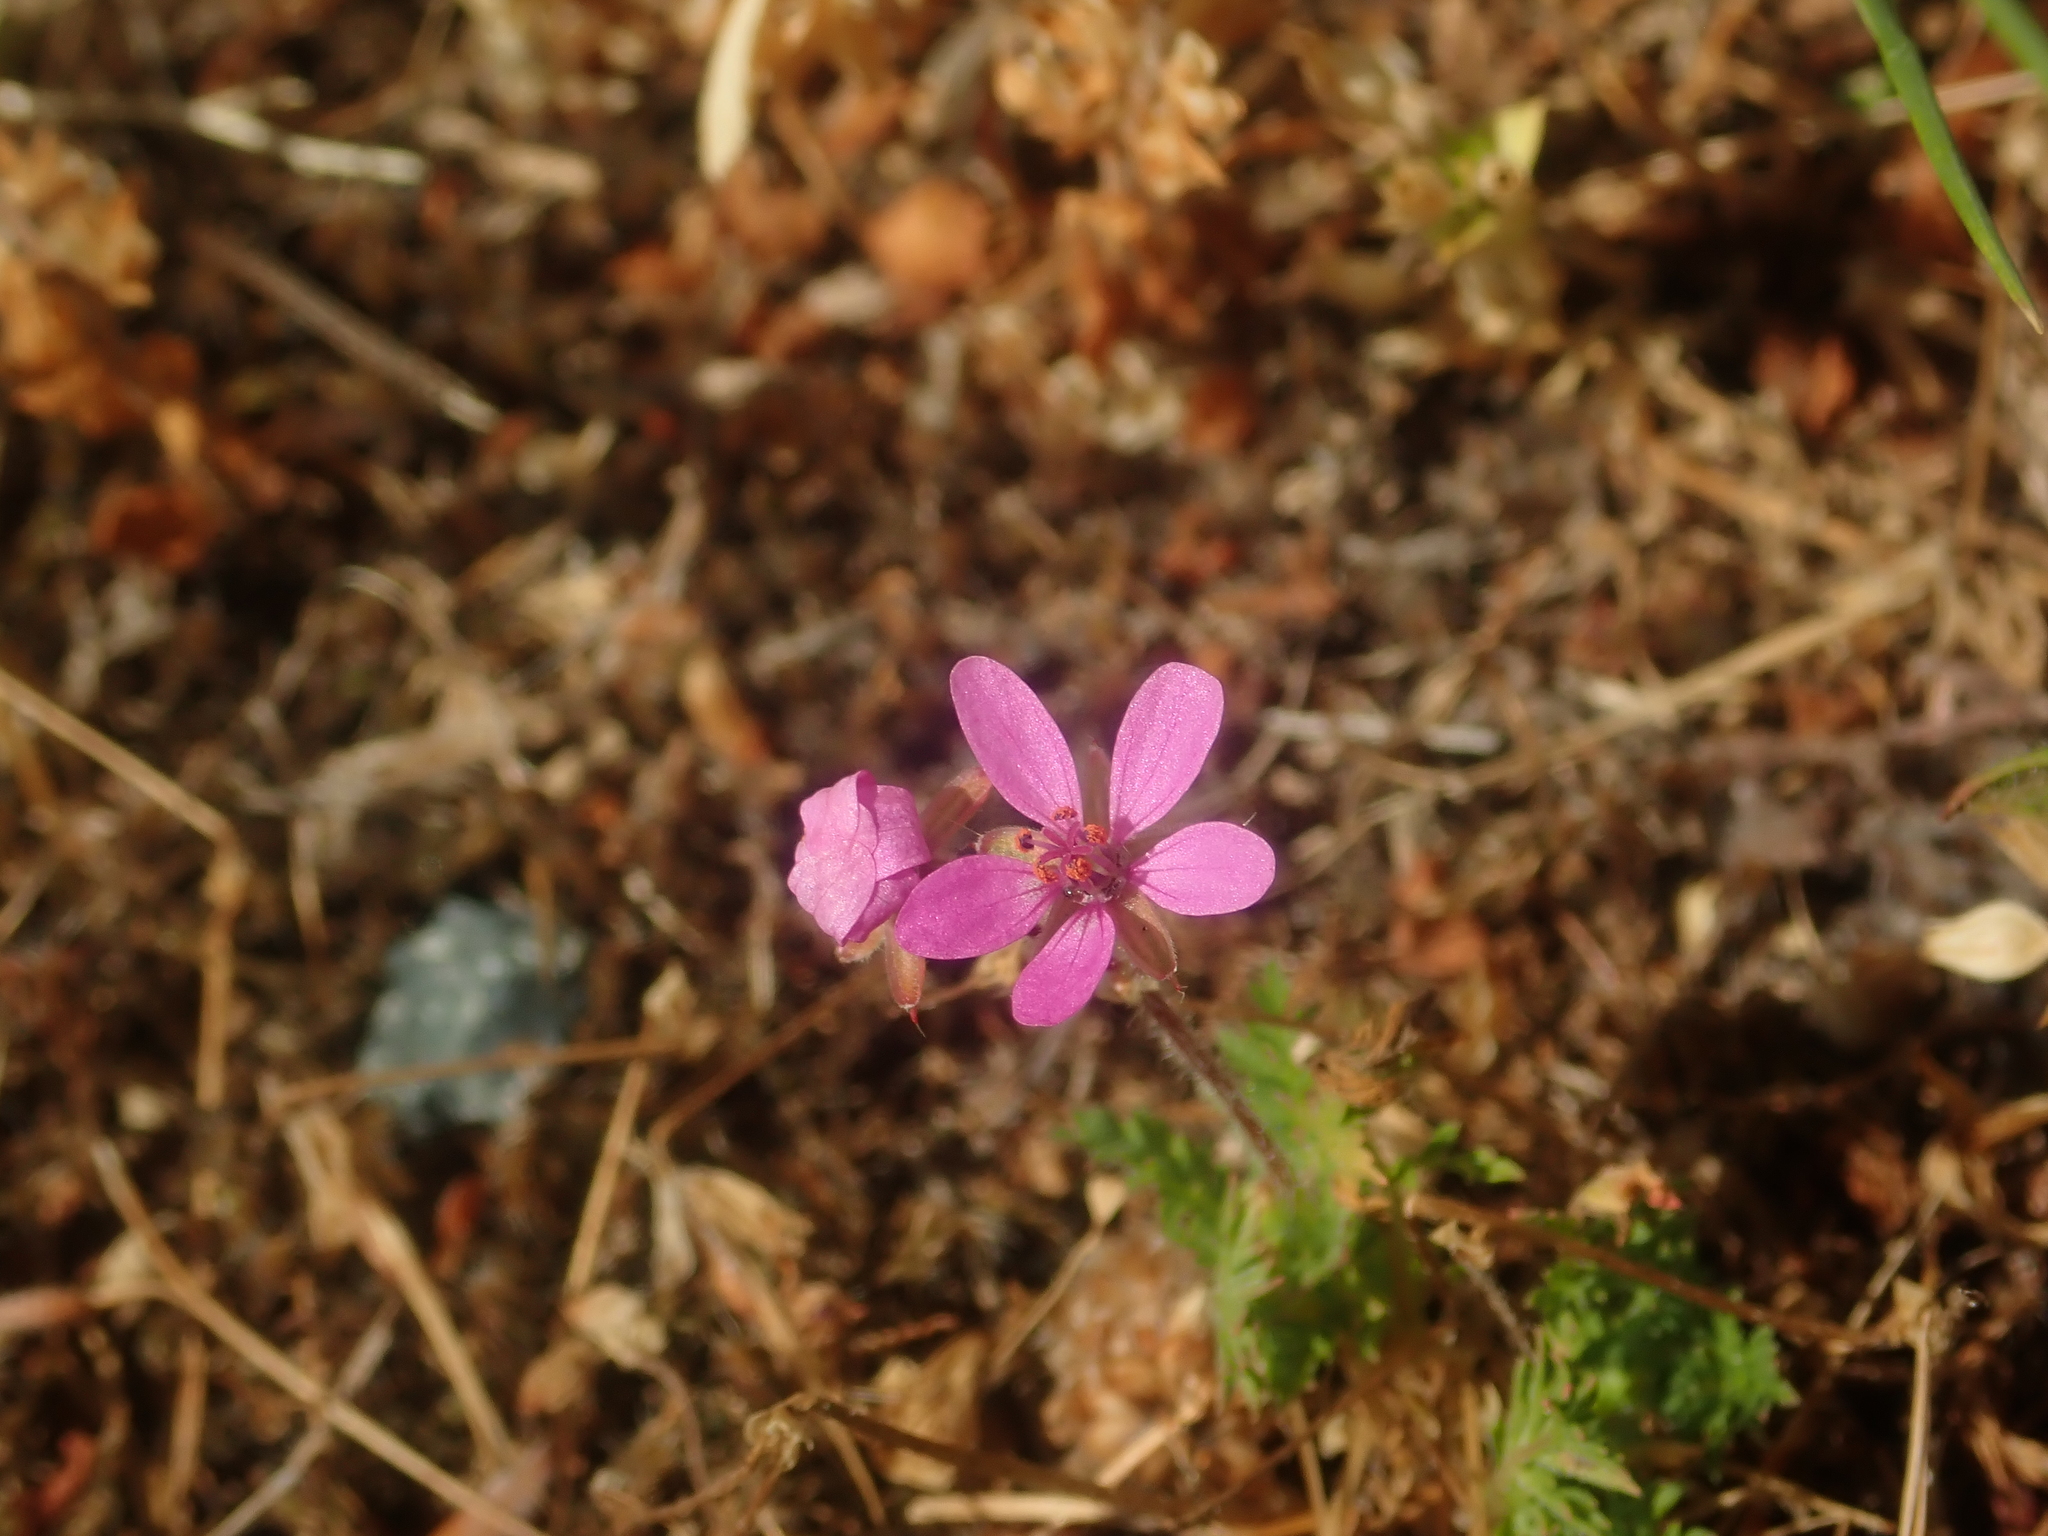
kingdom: Plantae
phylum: Tracheophyta
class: Magnoliopsida
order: Geraniales
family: Geraniaceae
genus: Erodium
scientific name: Erodium cicutarium
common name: Common stork's-bill
